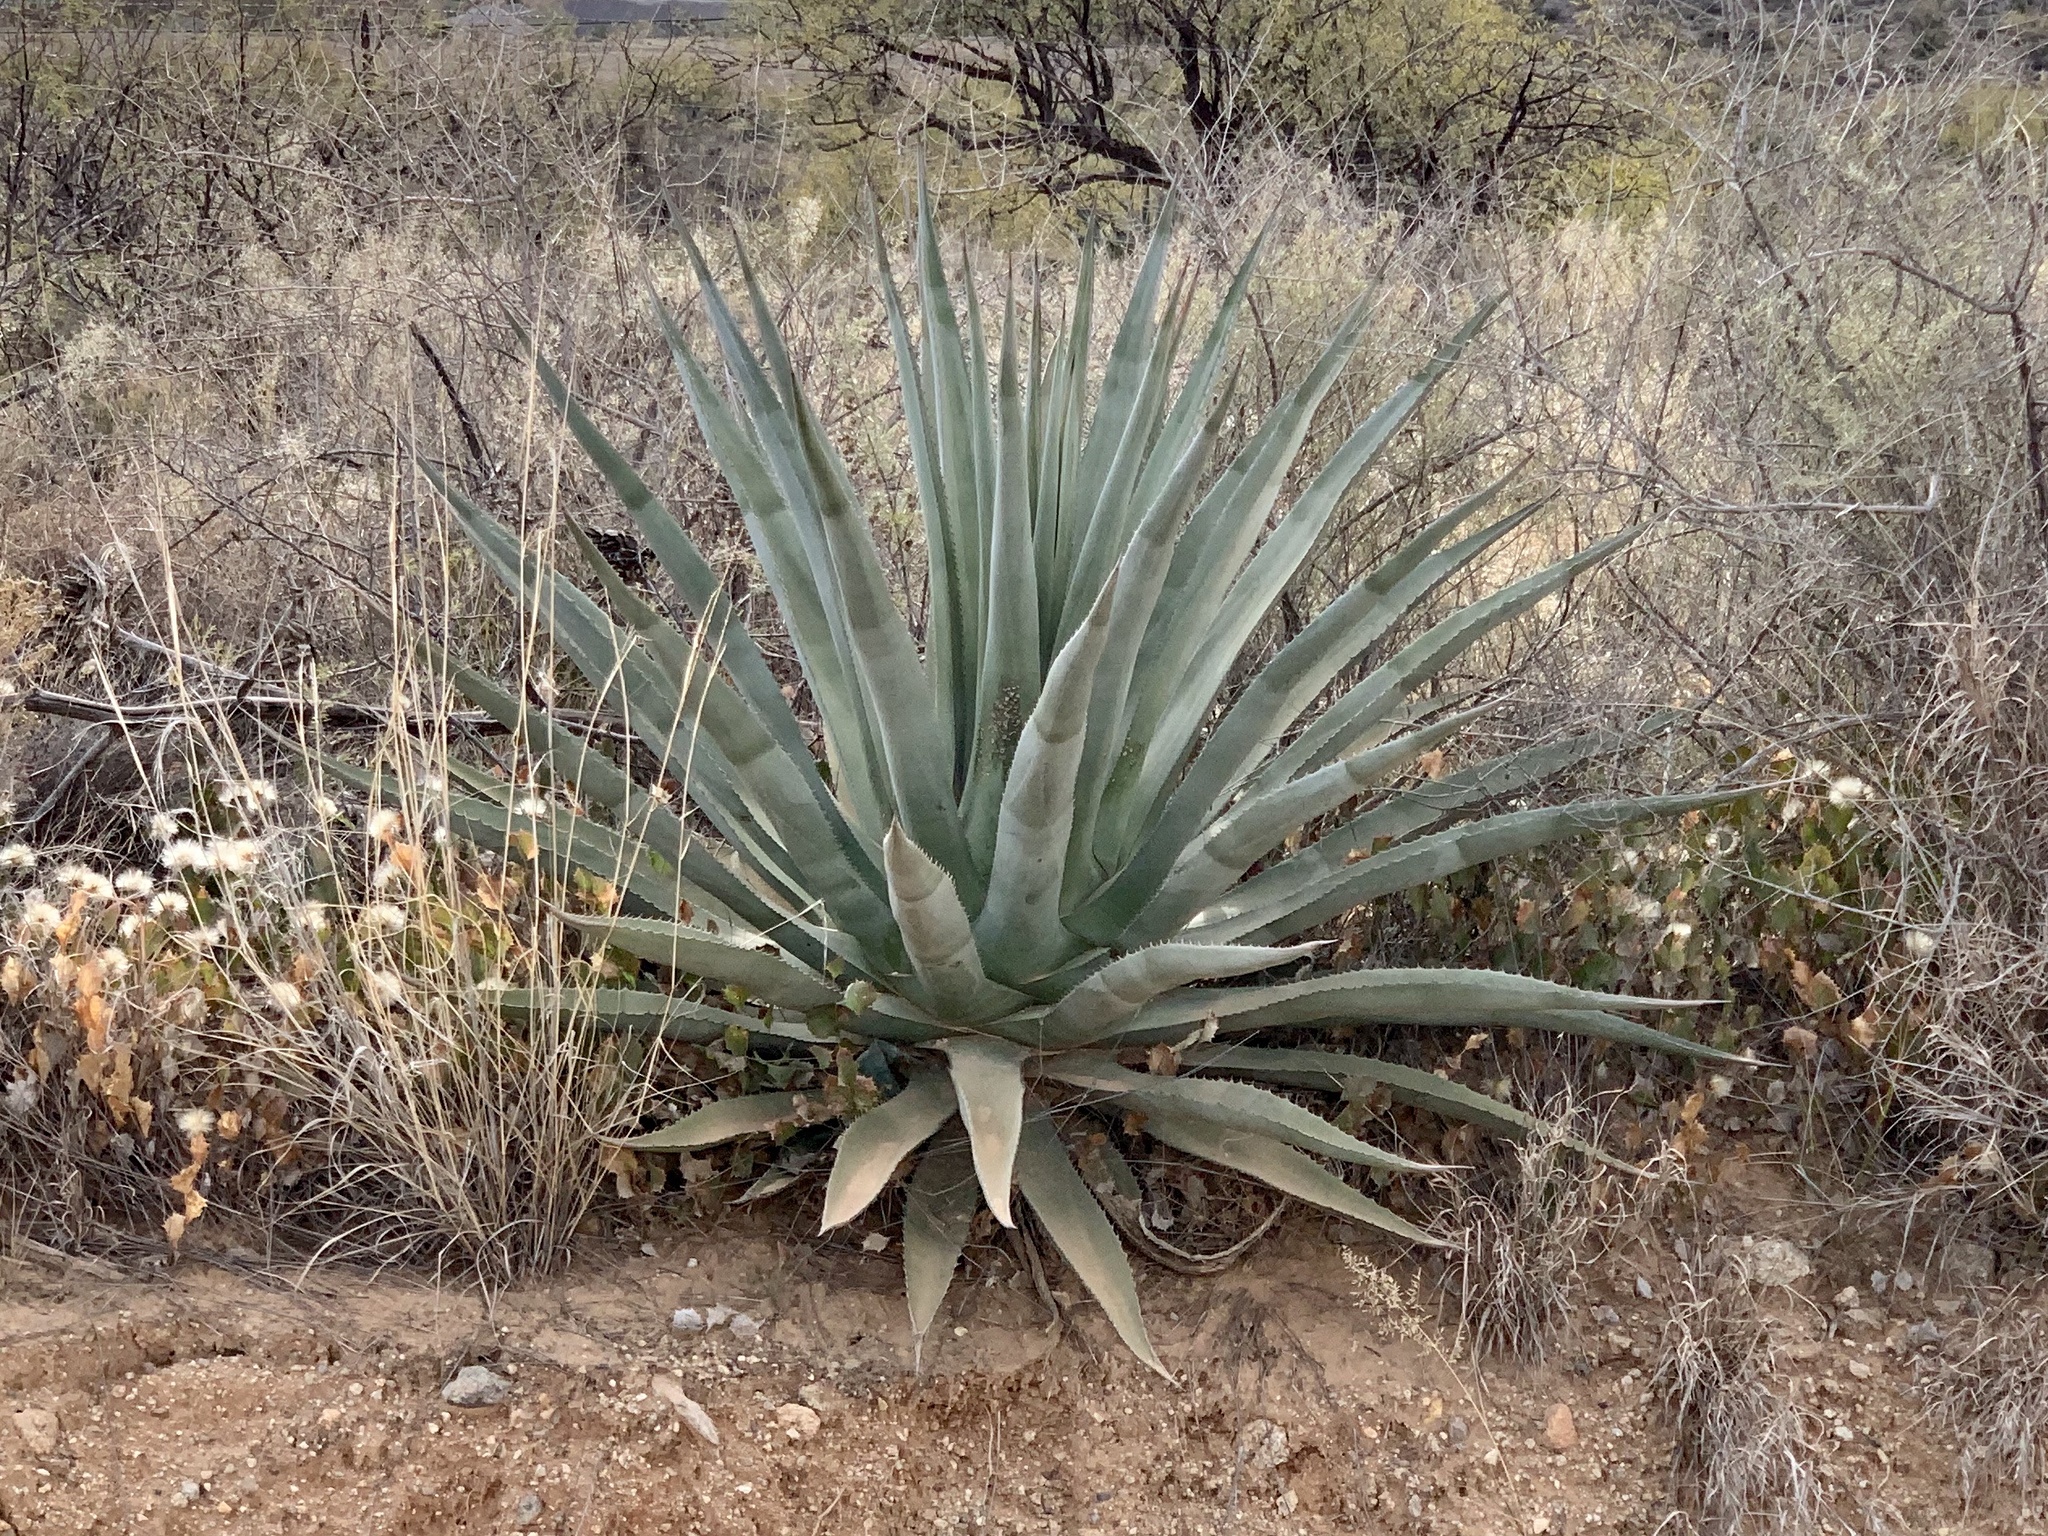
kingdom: Plantae
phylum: Tracheophyta
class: Liliopsida
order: Asparagales
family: Asparagaceae
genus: Agave
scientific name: Agave palmeri
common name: Palmer agave
